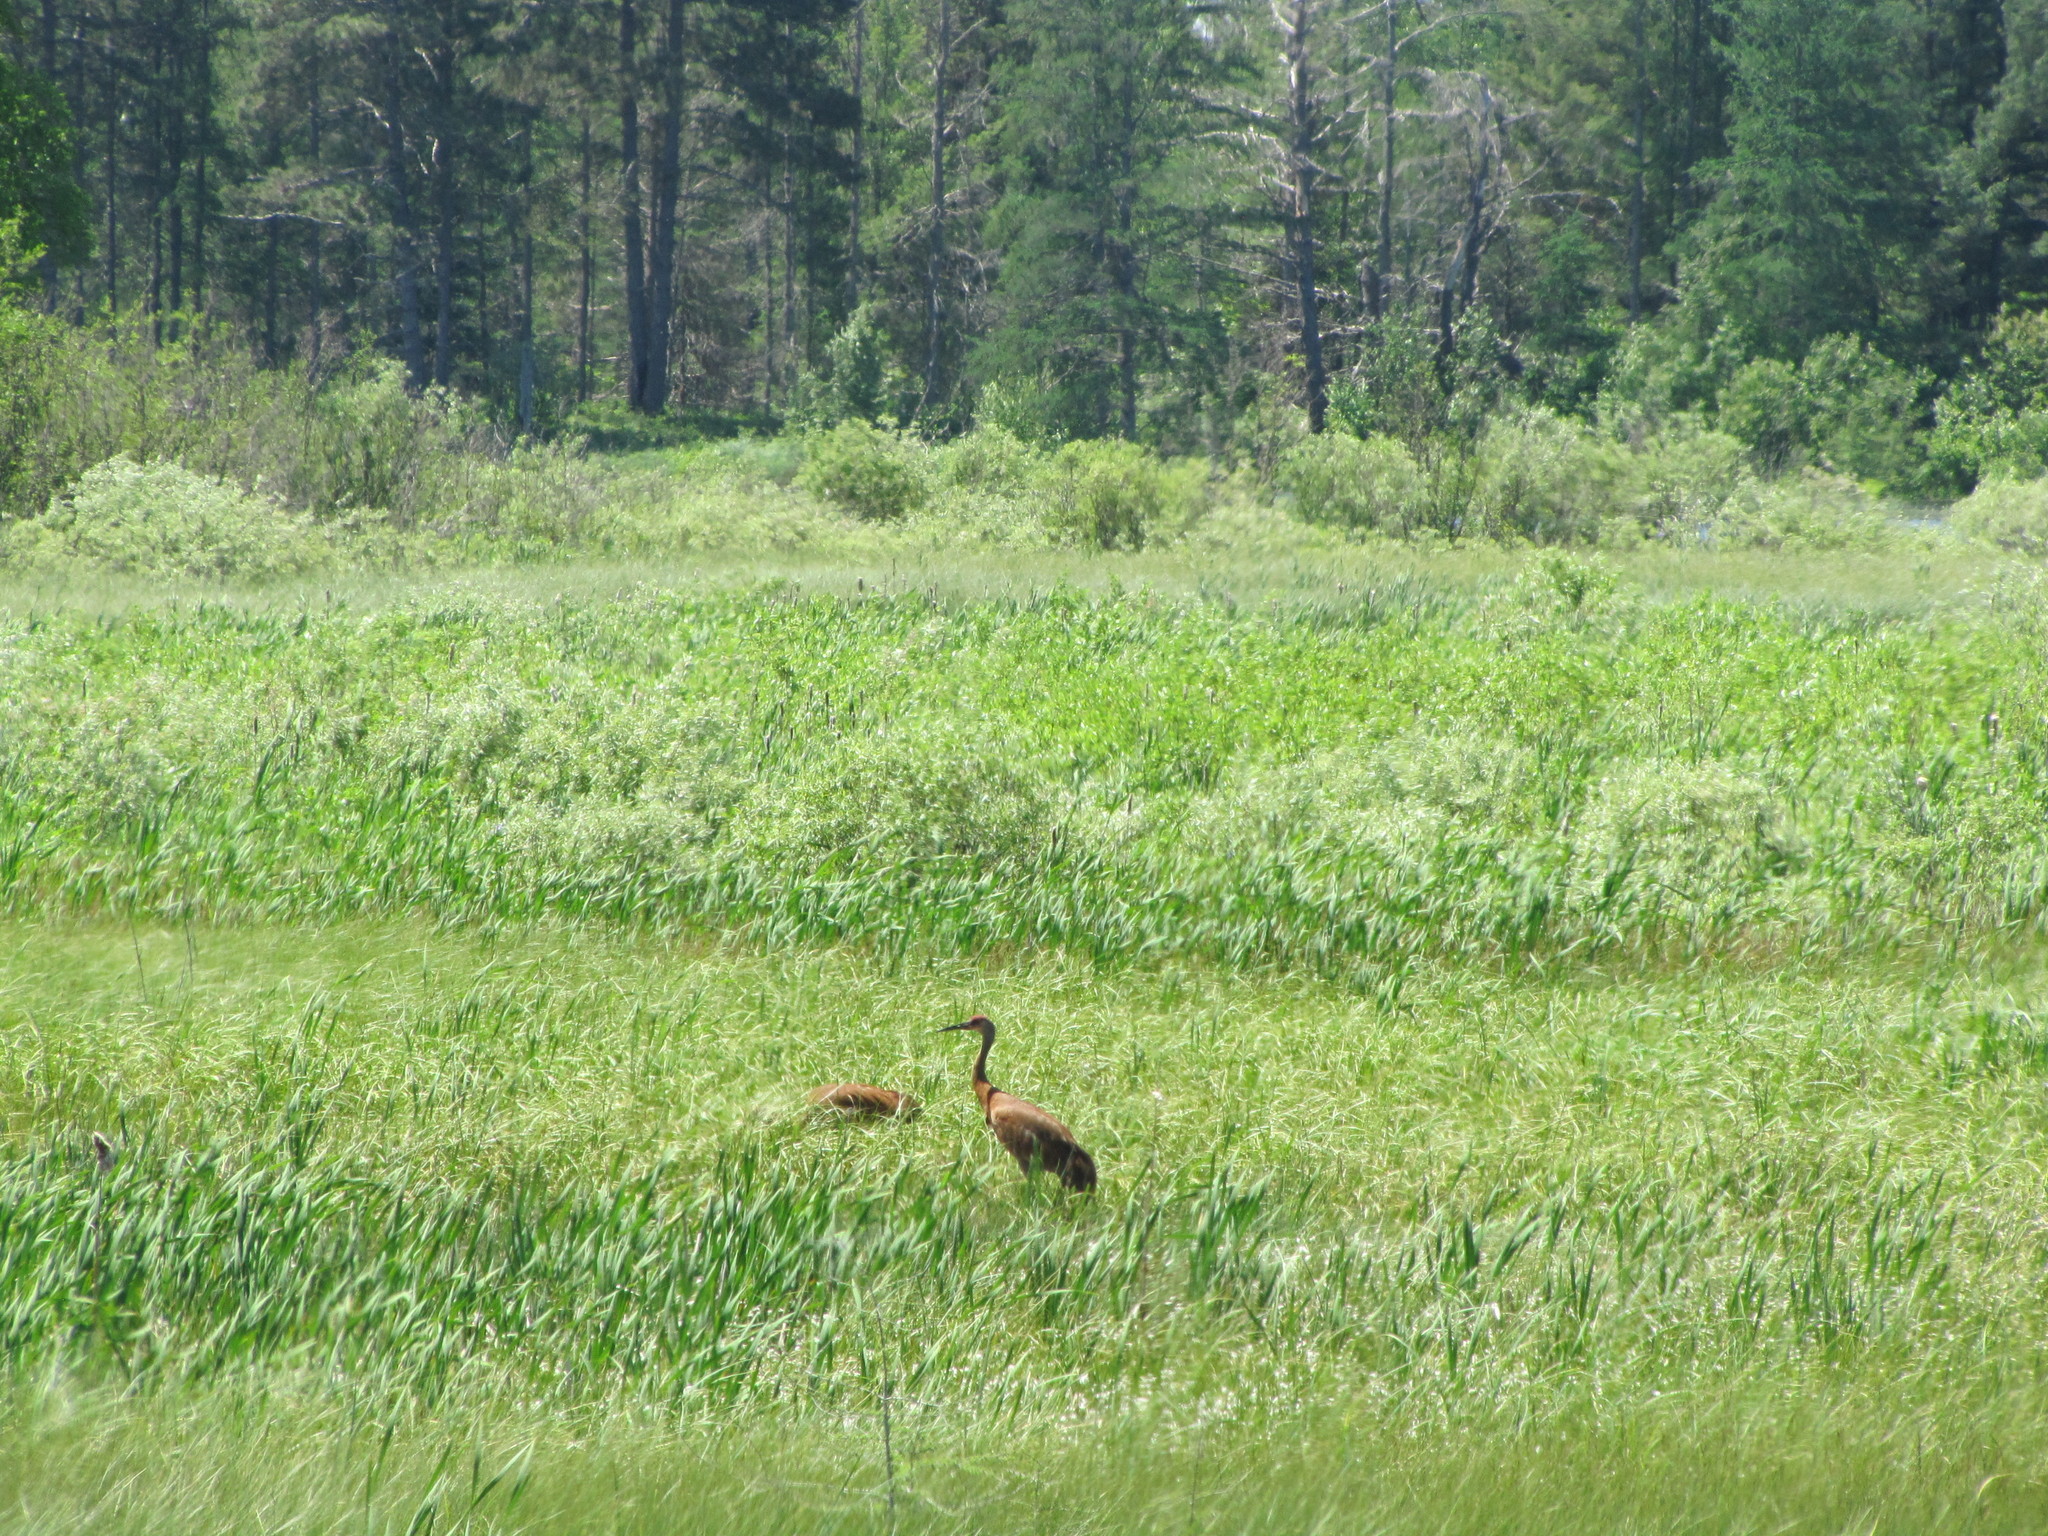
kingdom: Animalia
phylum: Chordata
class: Aves
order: Gruiformes
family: Gruidae
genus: Grus
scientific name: Grus canadensis
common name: Sandhill crane
